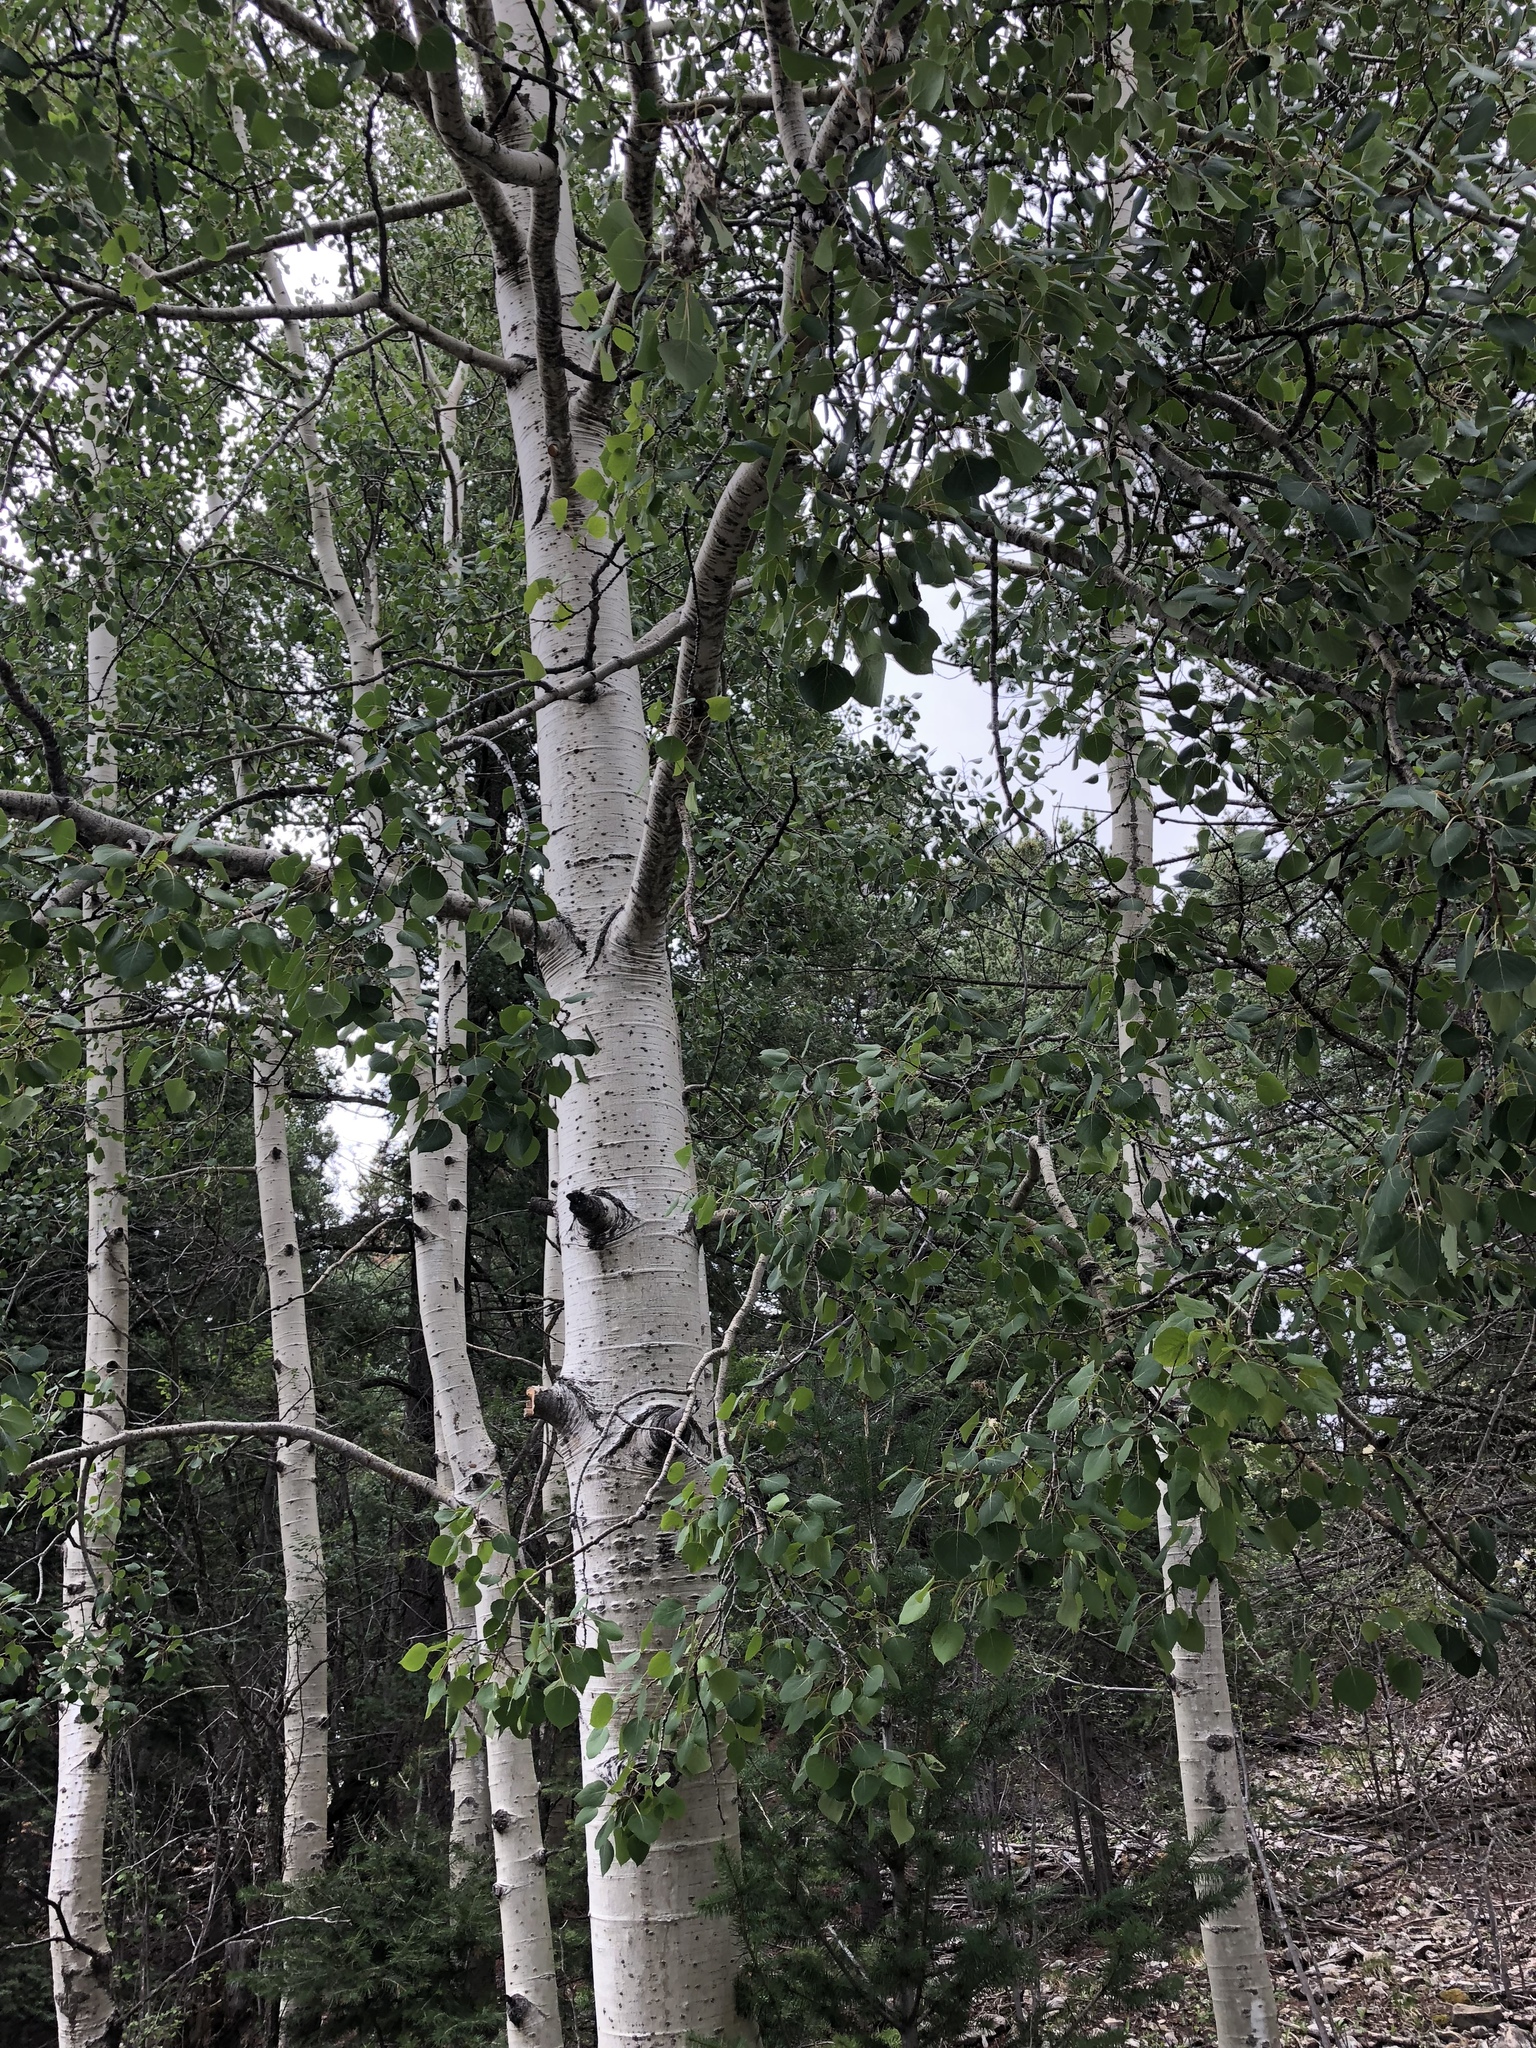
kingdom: Plantae
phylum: Tracheophyta
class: Magnoliopsida
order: Malpighiales
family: Salicaceae
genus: Populus
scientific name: Populus tremuloides
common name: Quaking aspen
